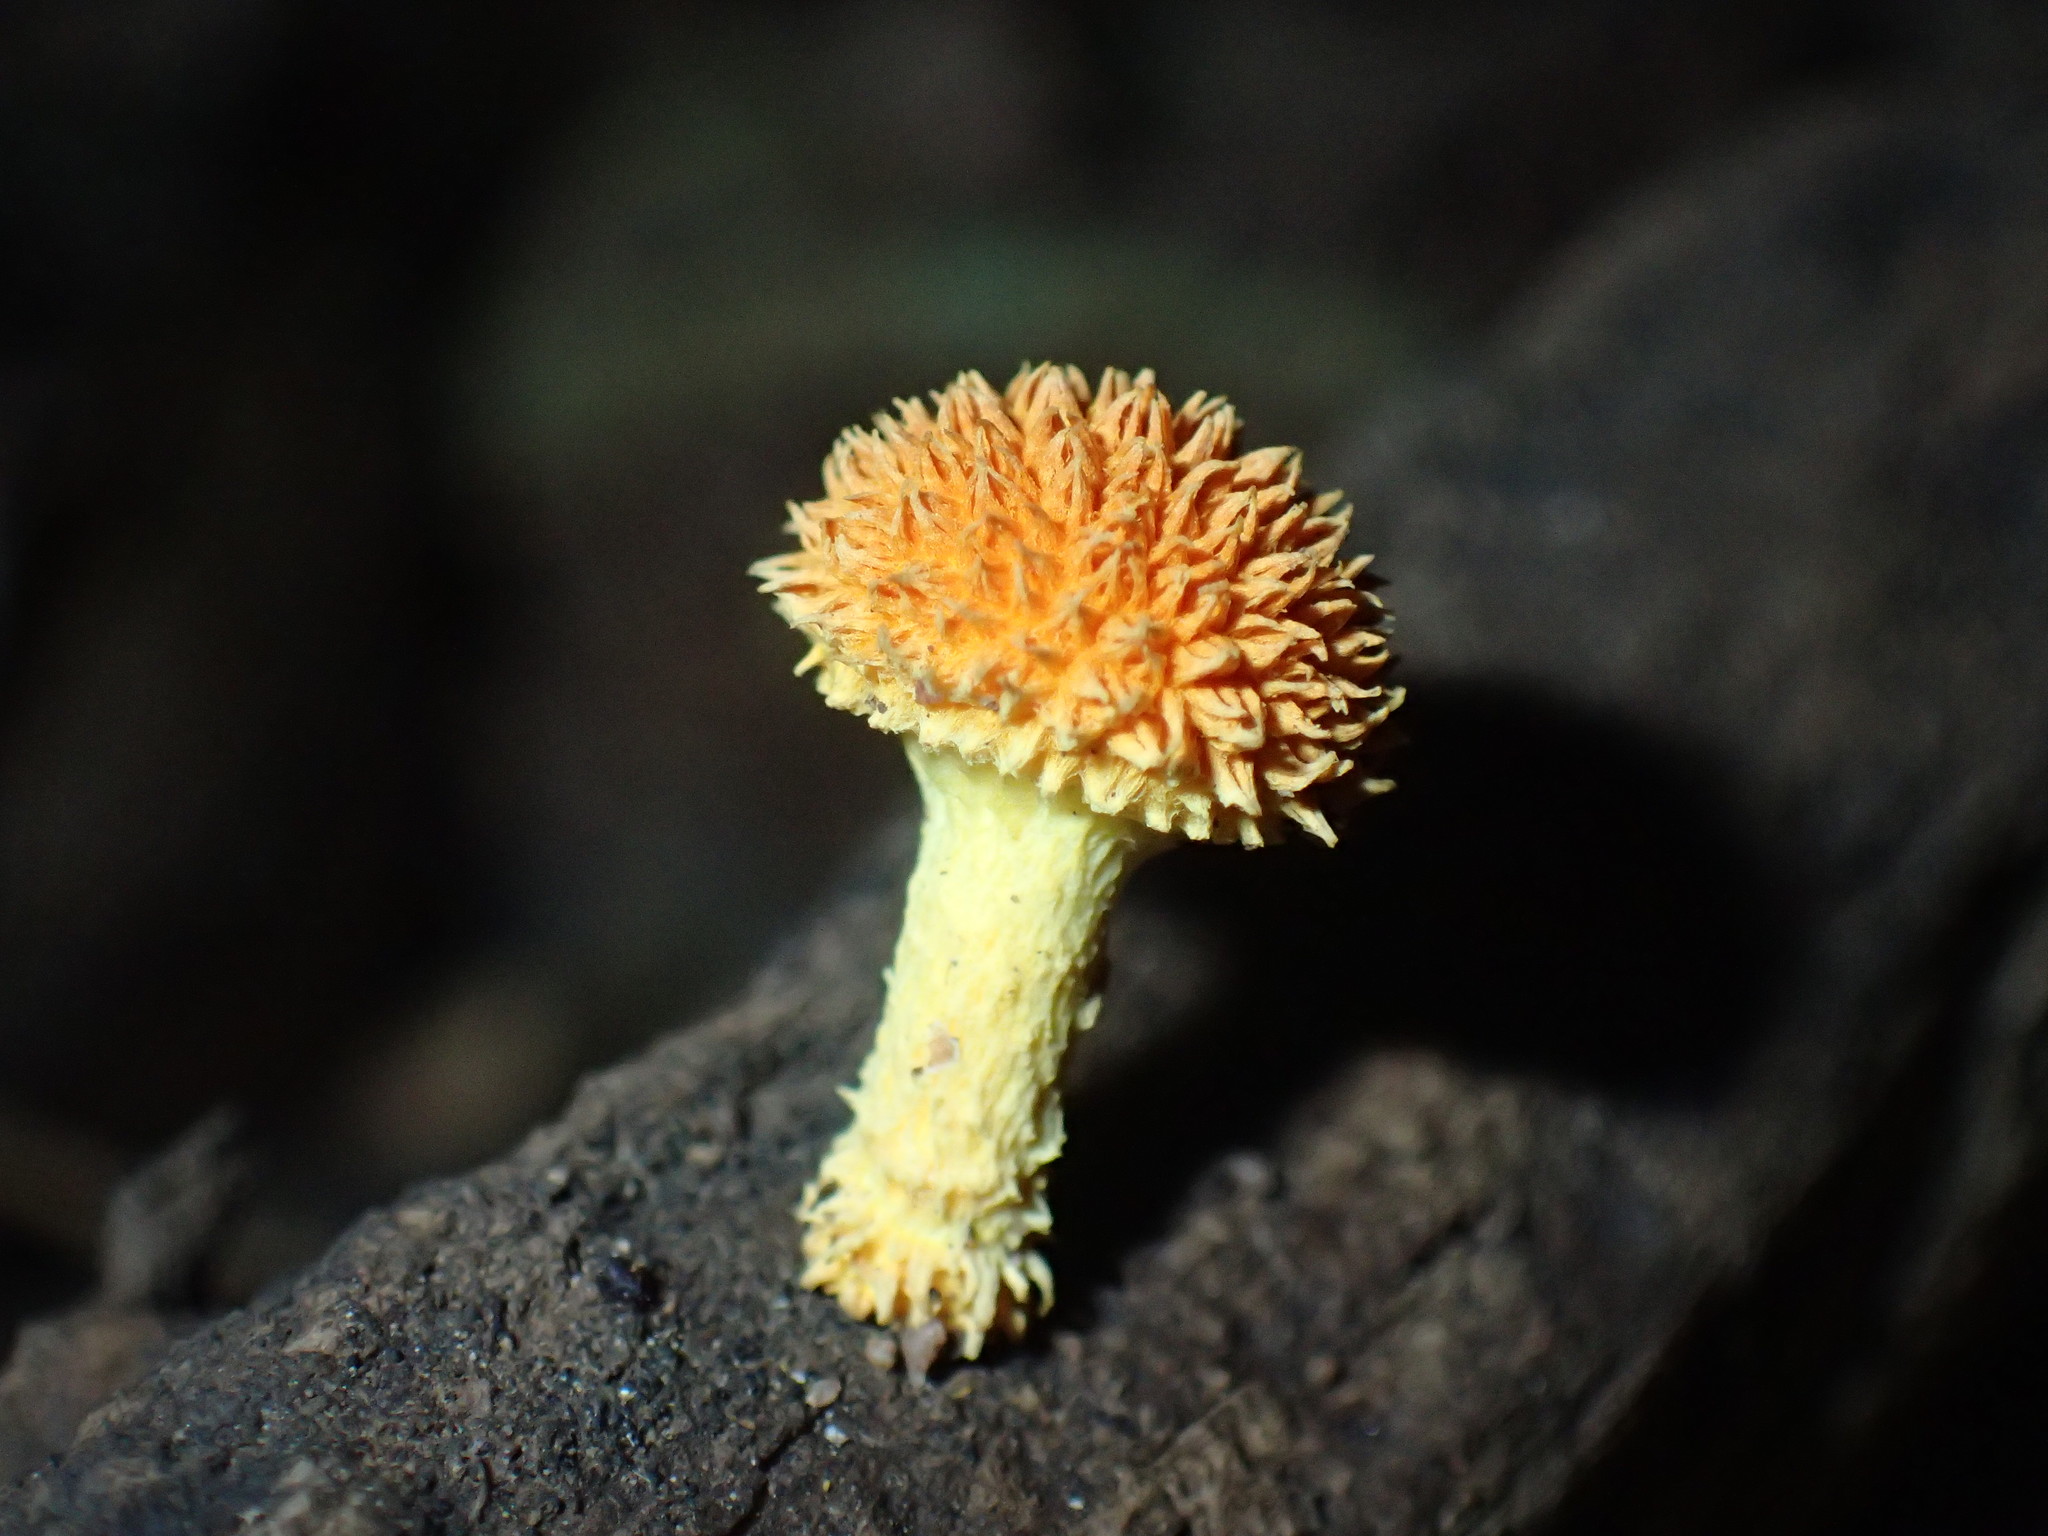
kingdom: Fungi
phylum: Basidiomycota
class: Agaricomycetes
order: Agaricales
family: Physalacriaceae
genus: Cyptotrama
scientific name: Cyptotrama asprata
